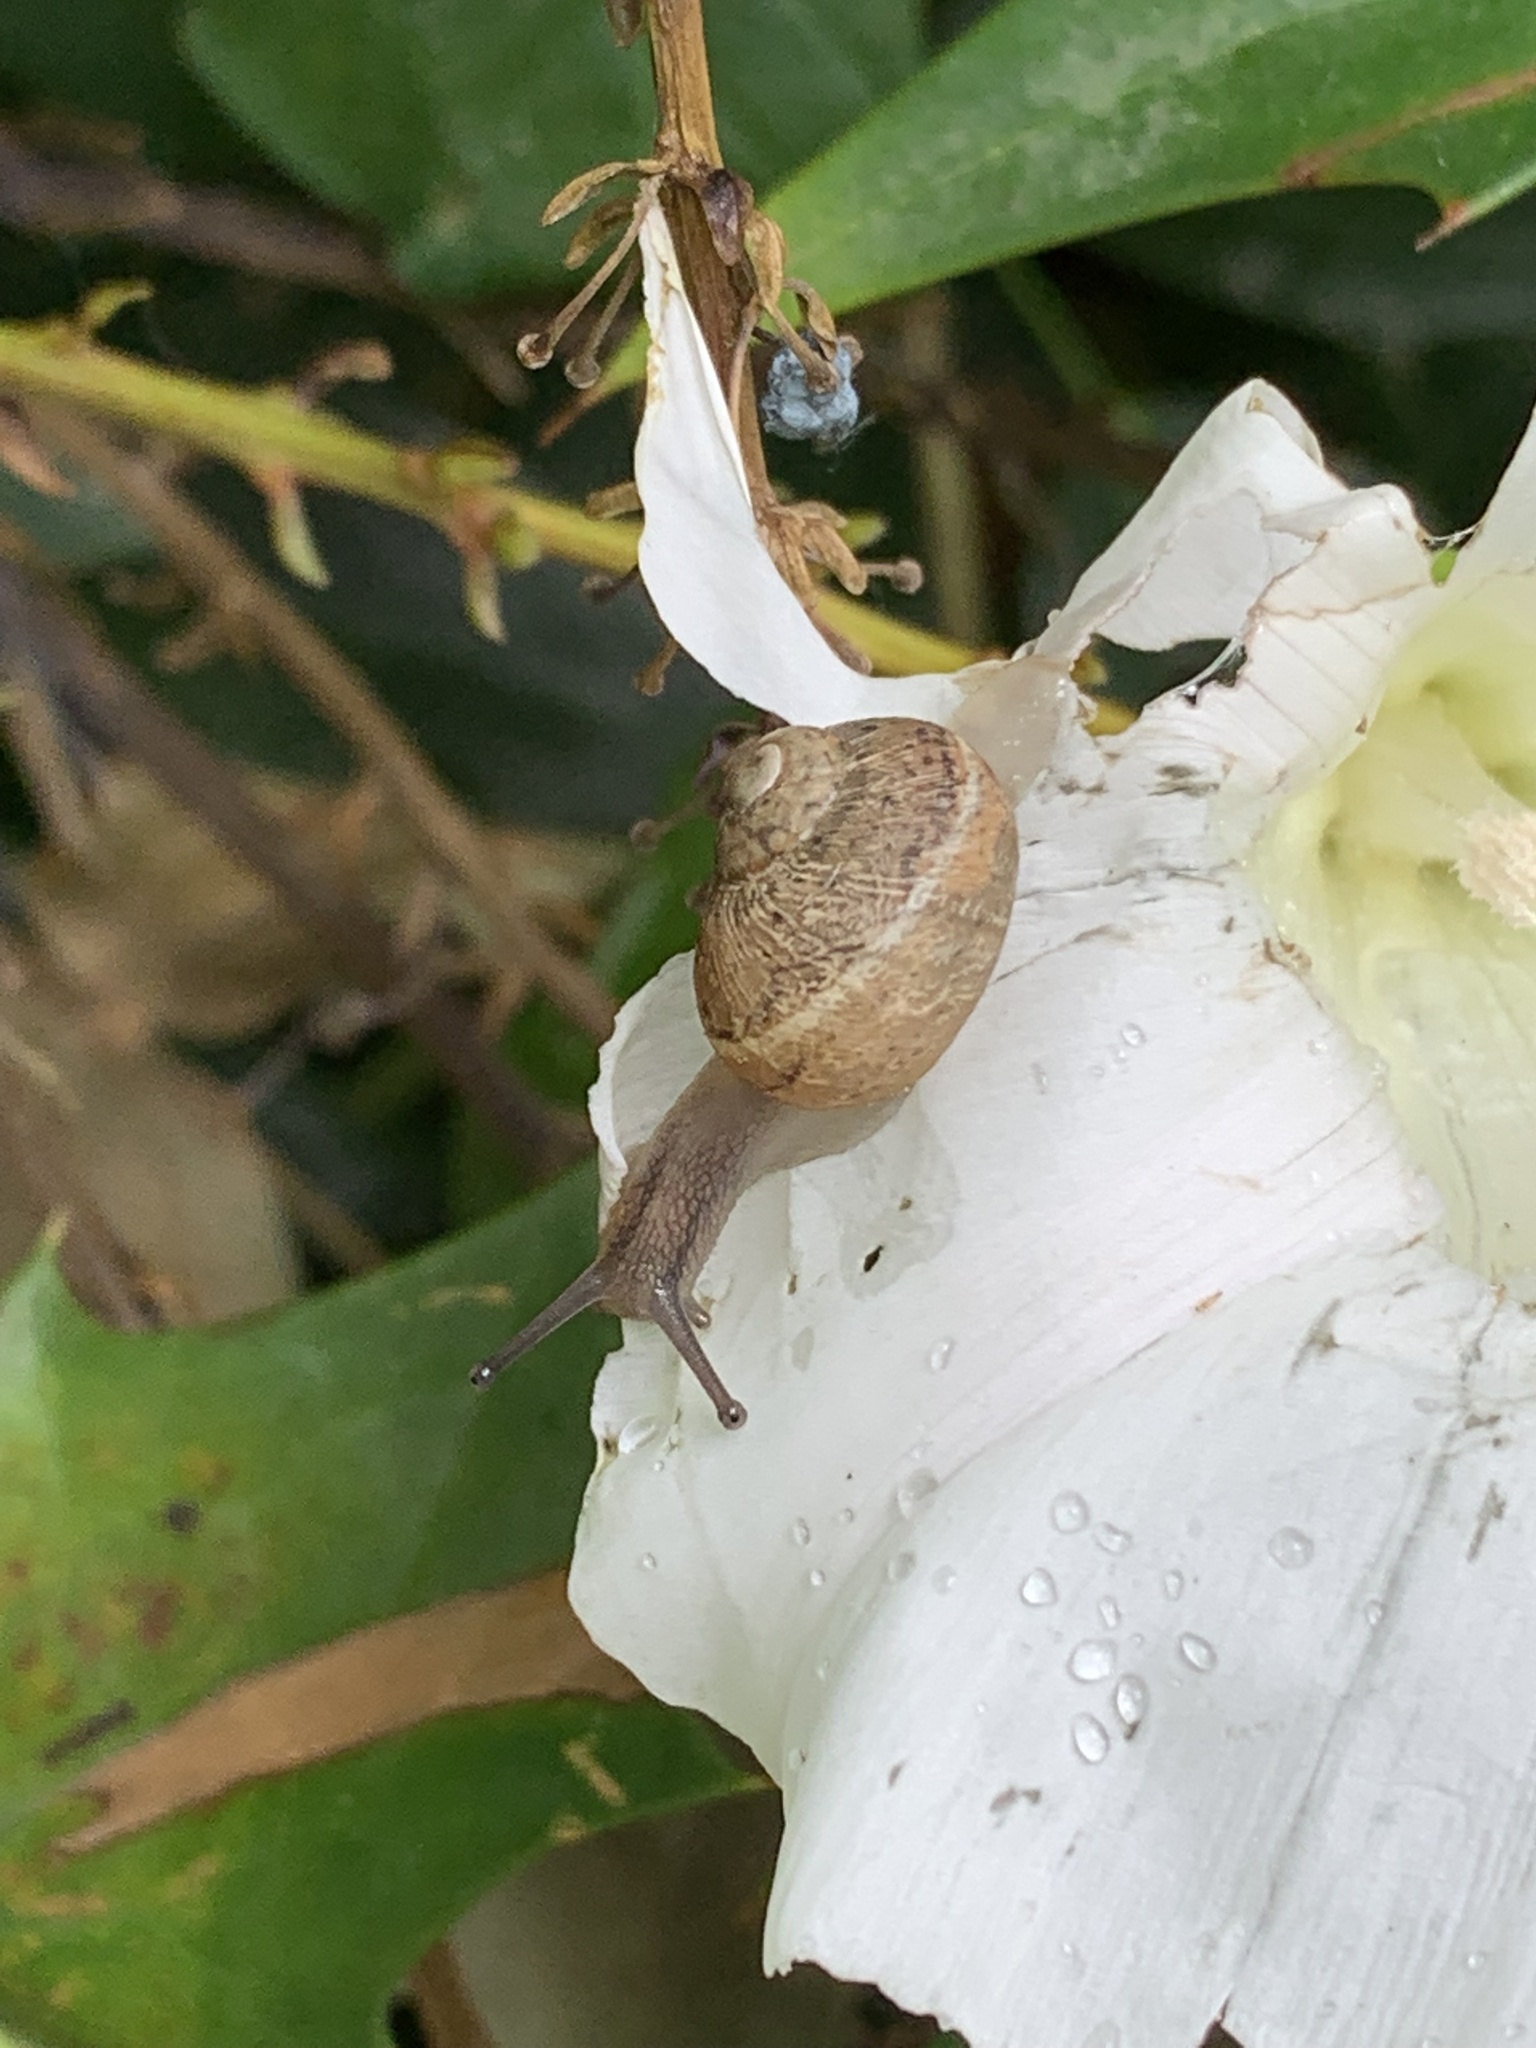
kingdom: Animalia
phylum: Mollusca
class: Gastropoda
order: Stylommatophora
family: Helicidae
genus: Cornu
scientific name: Cornu aspersum
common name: Brown garden snail
